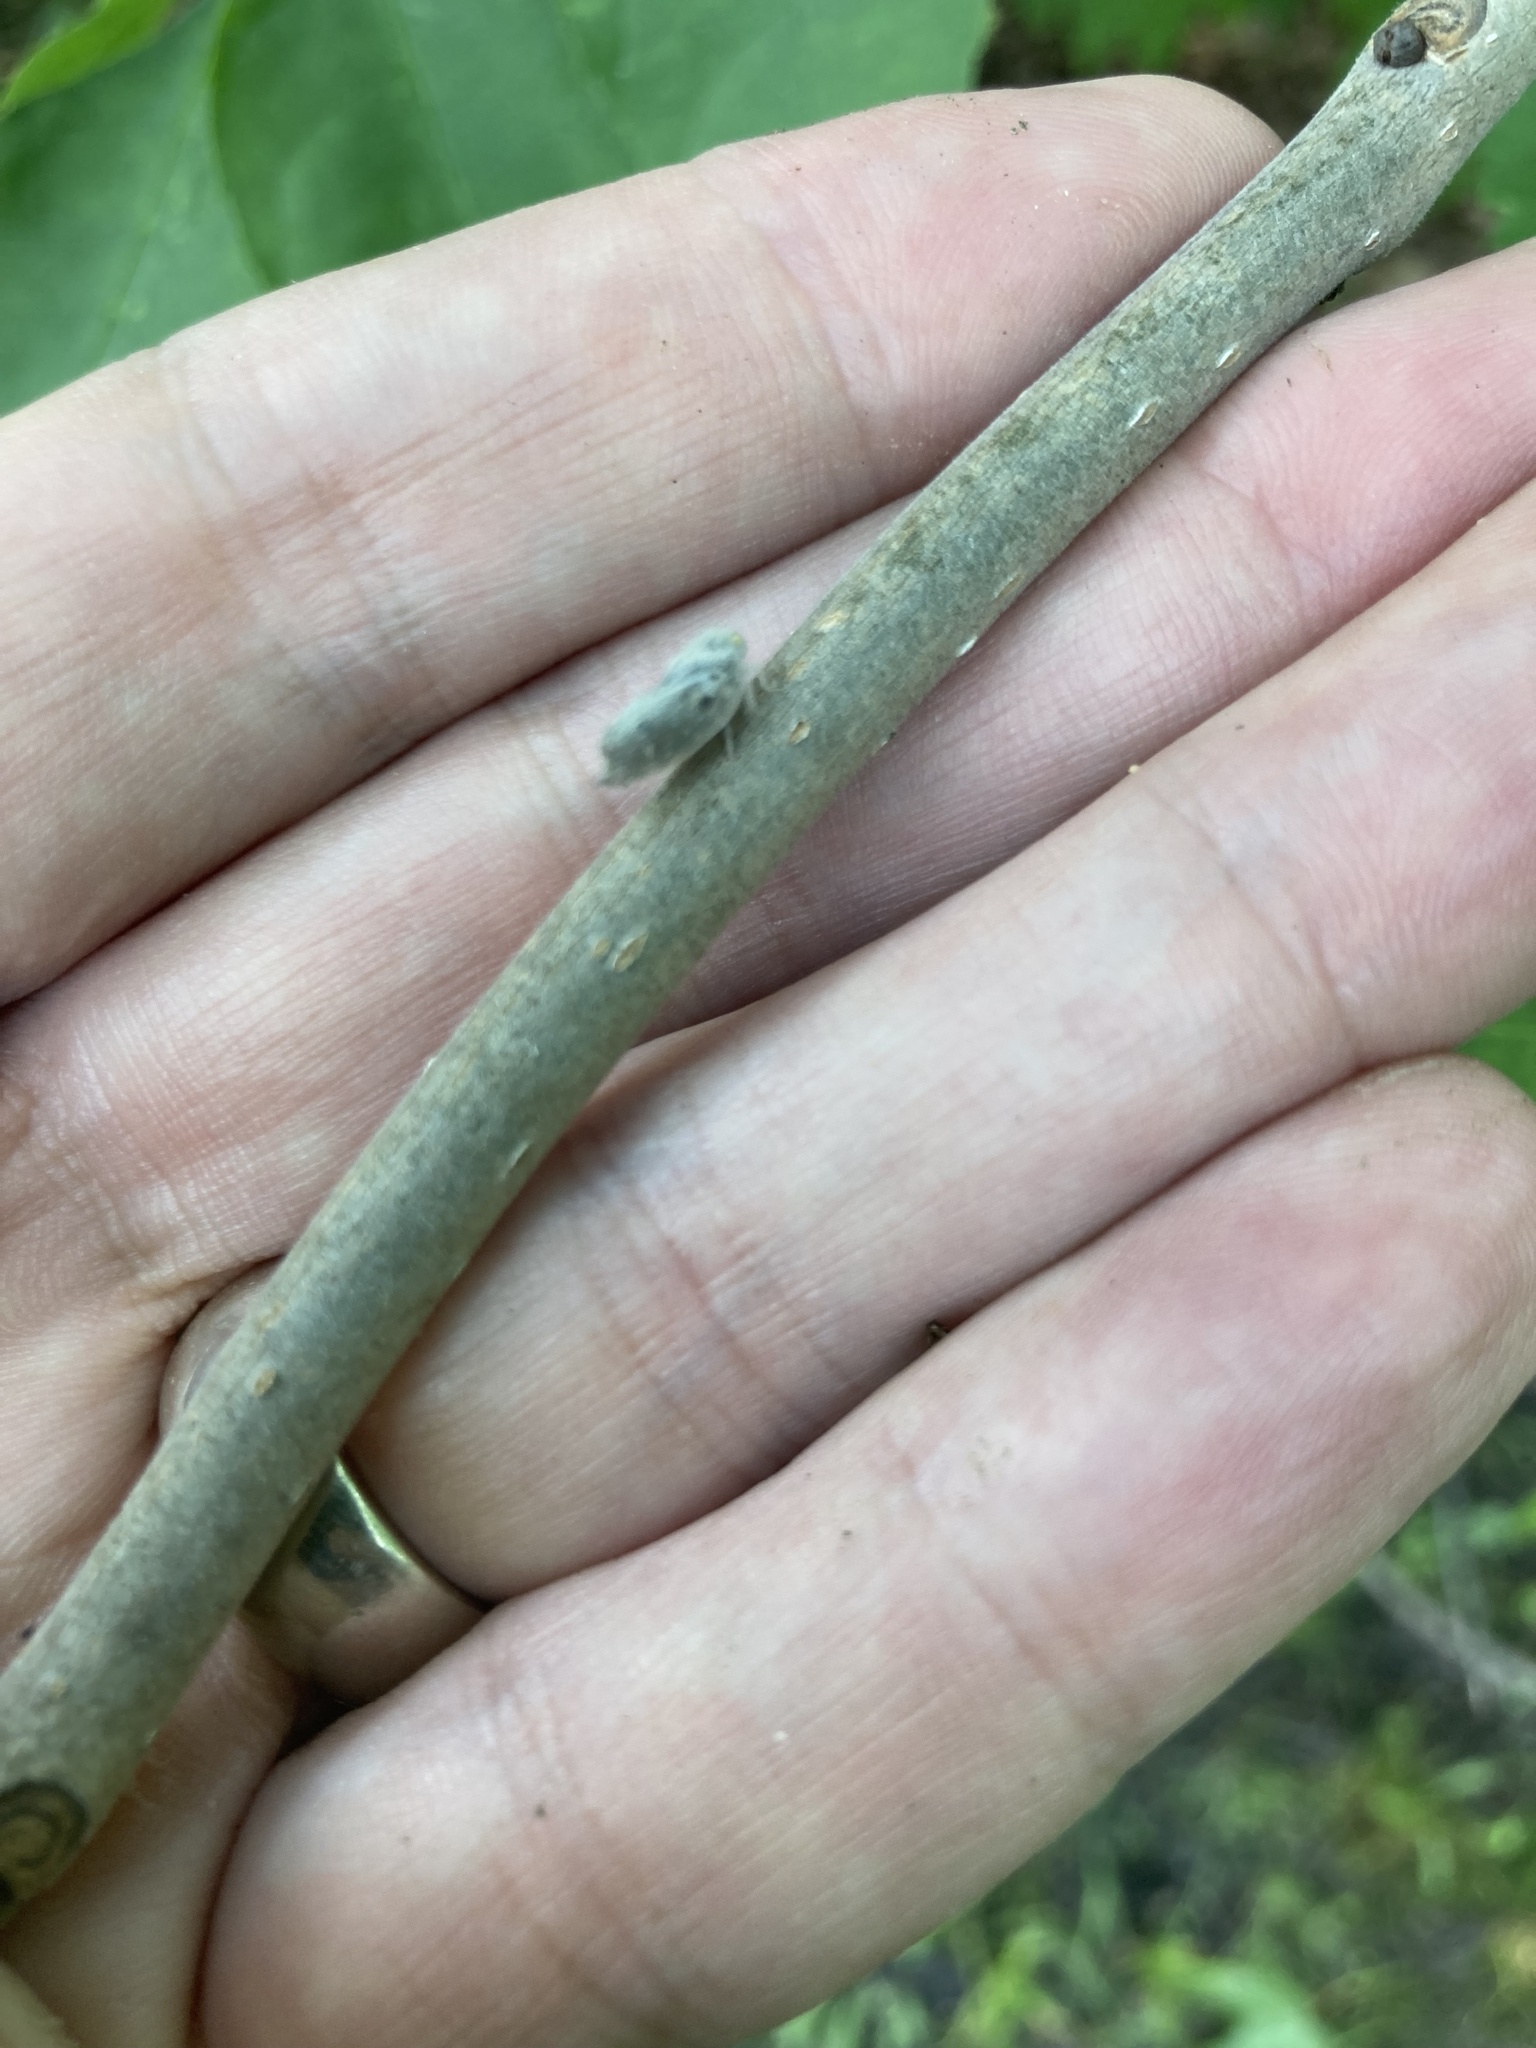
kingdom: Animalia
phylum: Arthropoda
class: Insecta
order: Hemiptera
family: Flatidae
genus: Metcalfa
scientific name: Metcalfa pruinosa
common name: Citrus flatid planthopper
